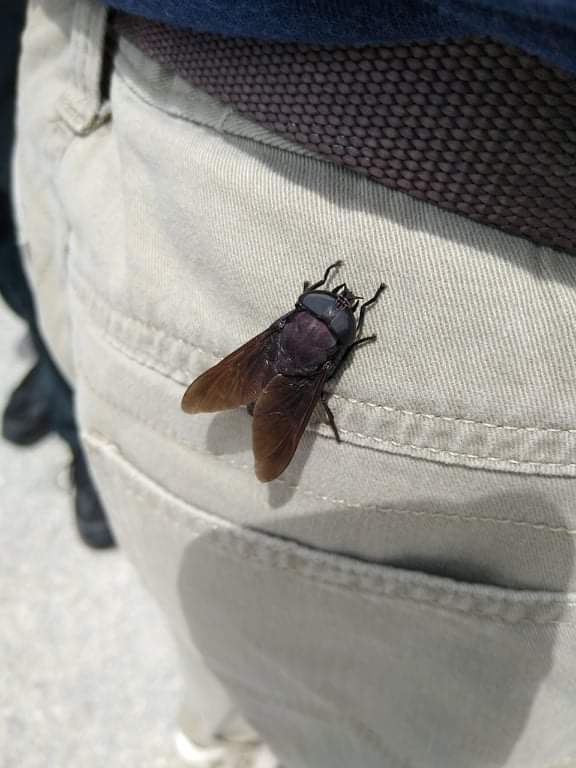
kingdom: Animalia
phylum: Arthropoda
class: Insecta
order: Diptera
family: Tabanidae
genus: Tabanus
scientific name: Tabanus atratus
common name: Black horse fly
